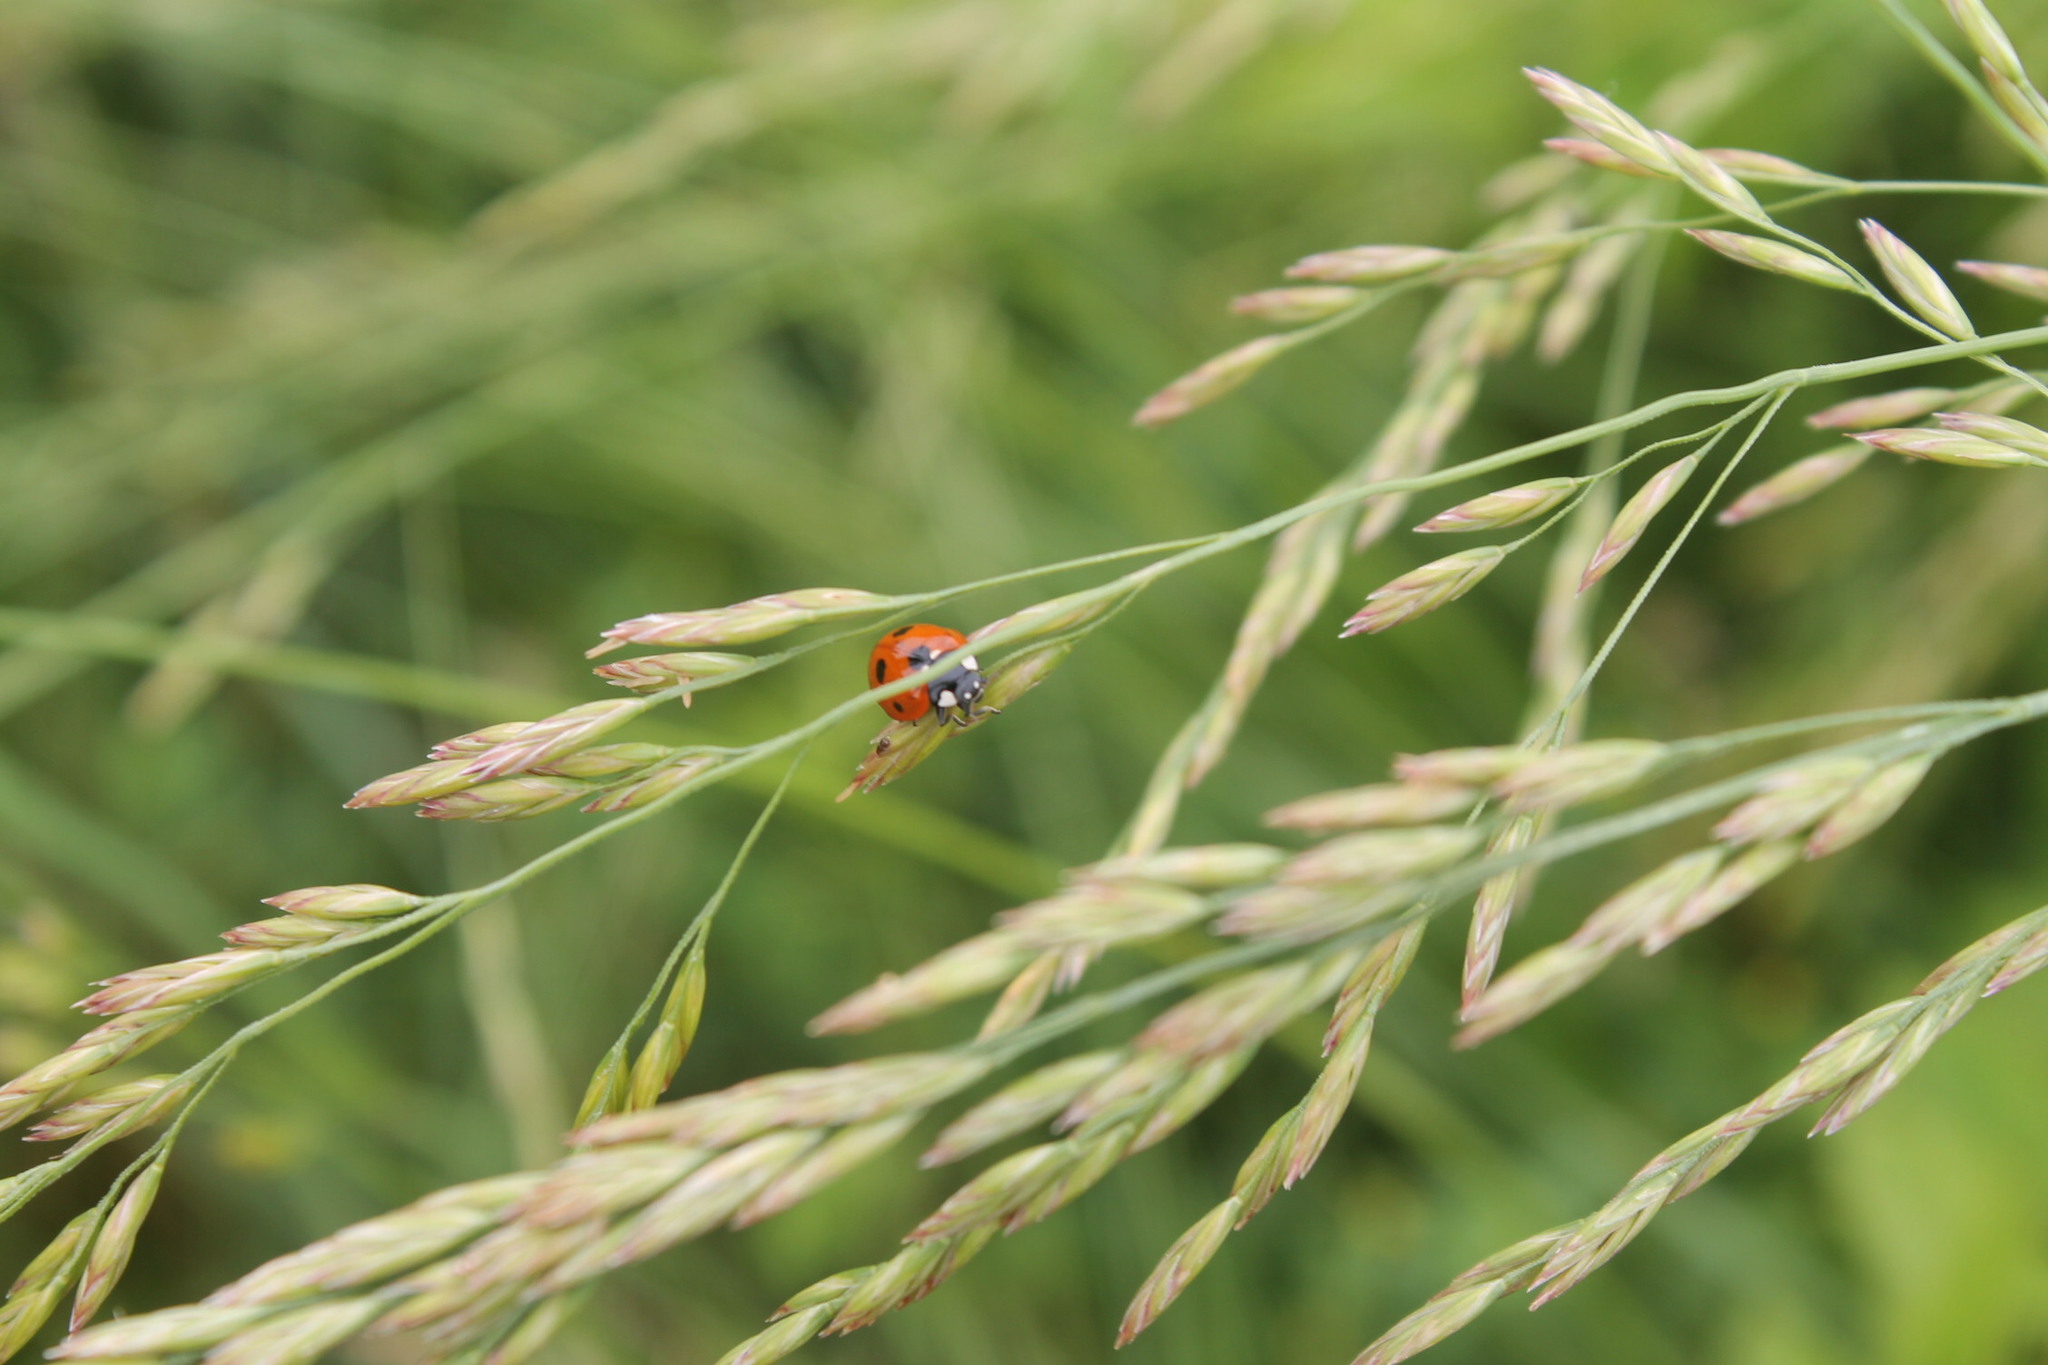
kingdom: Animalia
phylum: Arthropoda
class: Insecta
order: Coleoptera
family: Coccinellidae
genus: Coccinella
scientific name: Coccinella septempunctata
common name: Sevenspotted lady beetle
